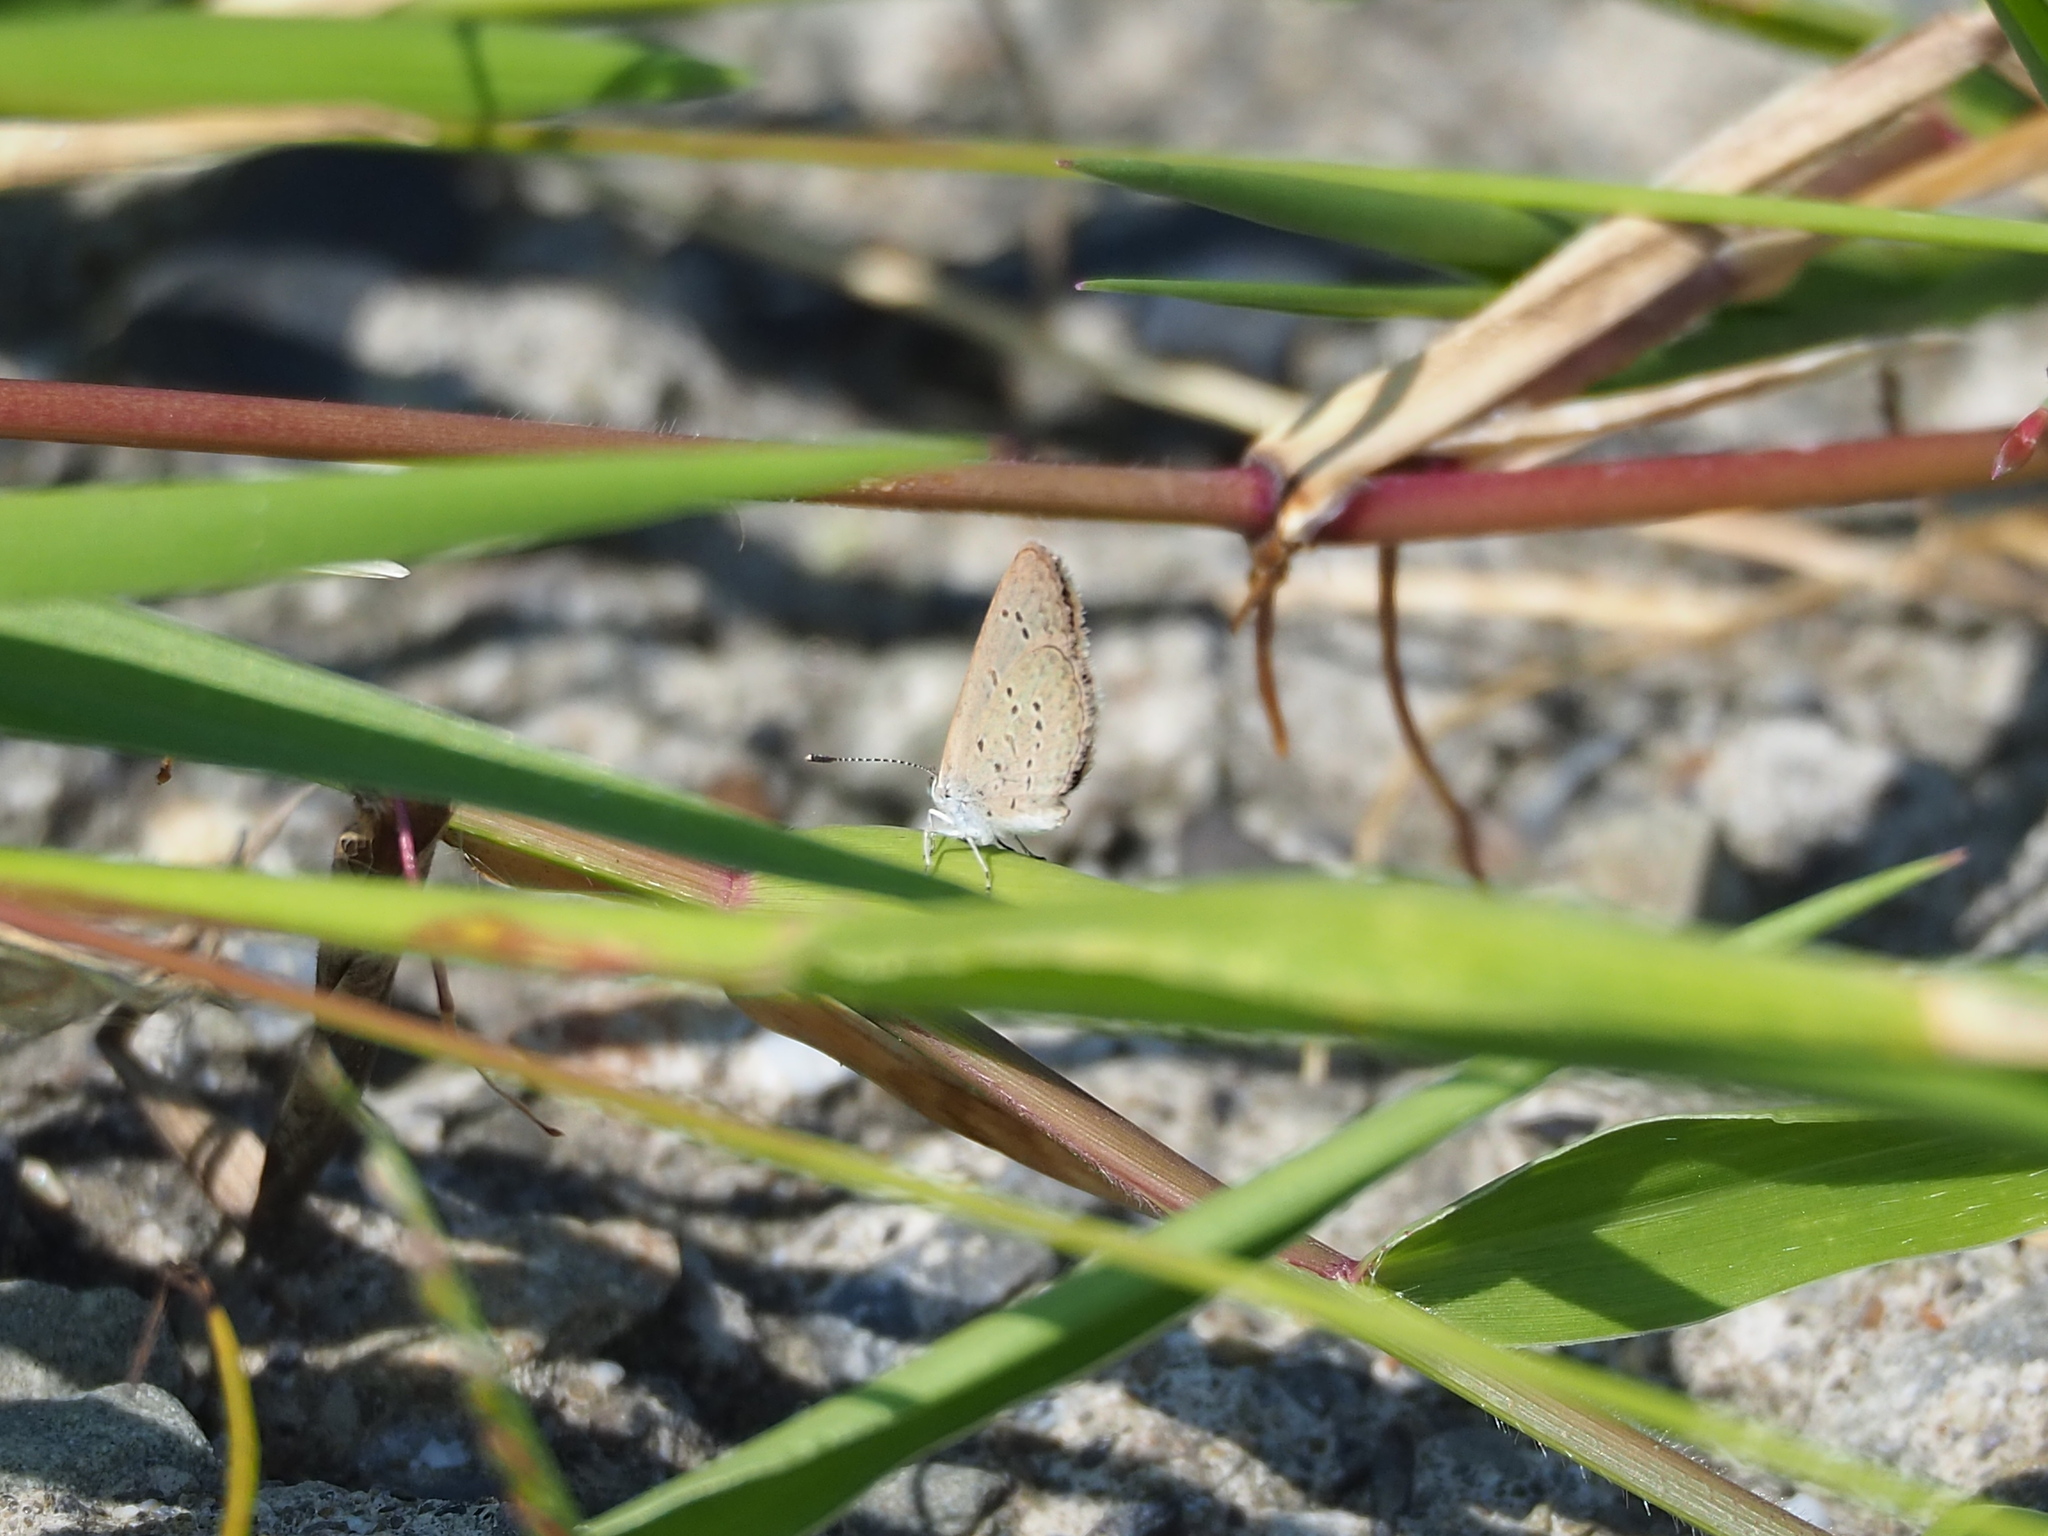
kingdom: Animalia
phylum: Arthropoda
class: Insecta
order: Lepidoptera
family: Lycaenidae
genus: Zizina
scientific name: Zizina otis
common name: Lesser grass blue
